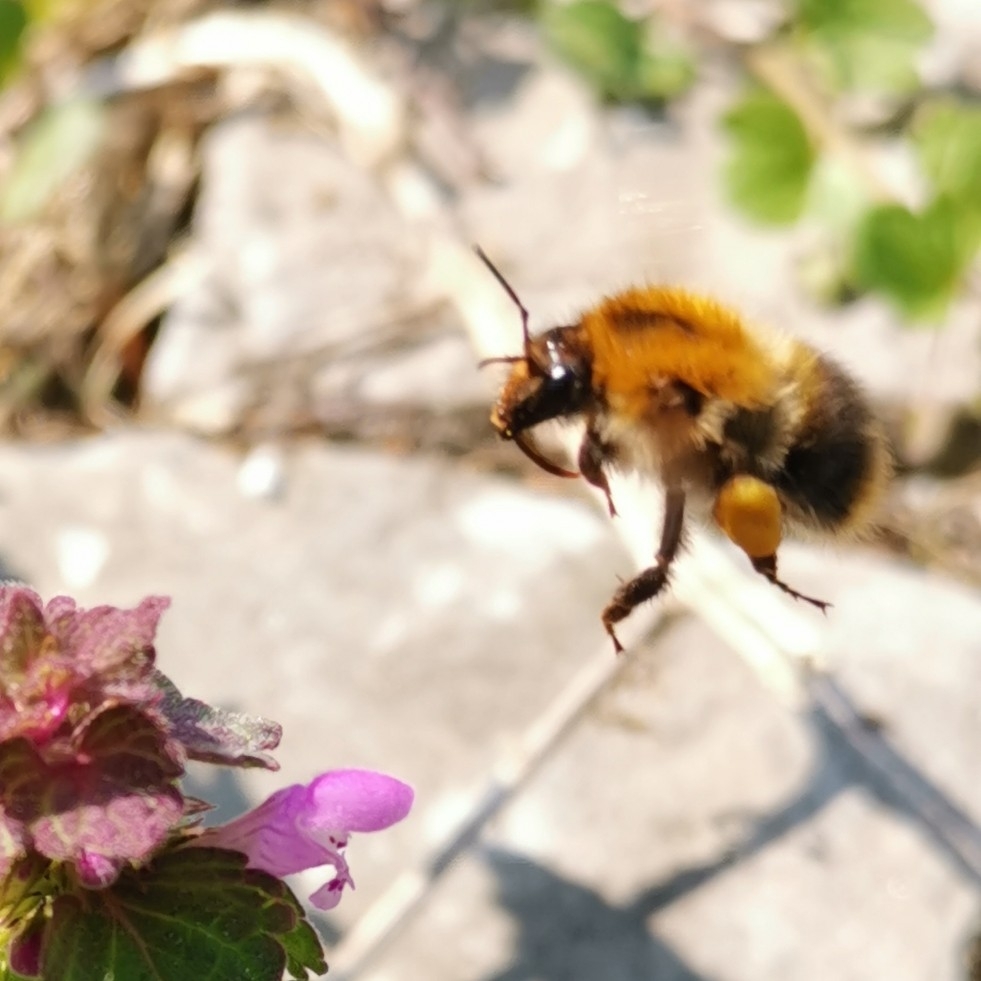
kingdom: Animalia
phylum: Arthropoda
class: Insecta
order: Hymenoptera
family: Apidae
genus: Bombus
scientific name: Bombus pascuorum
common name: Common carder bee
